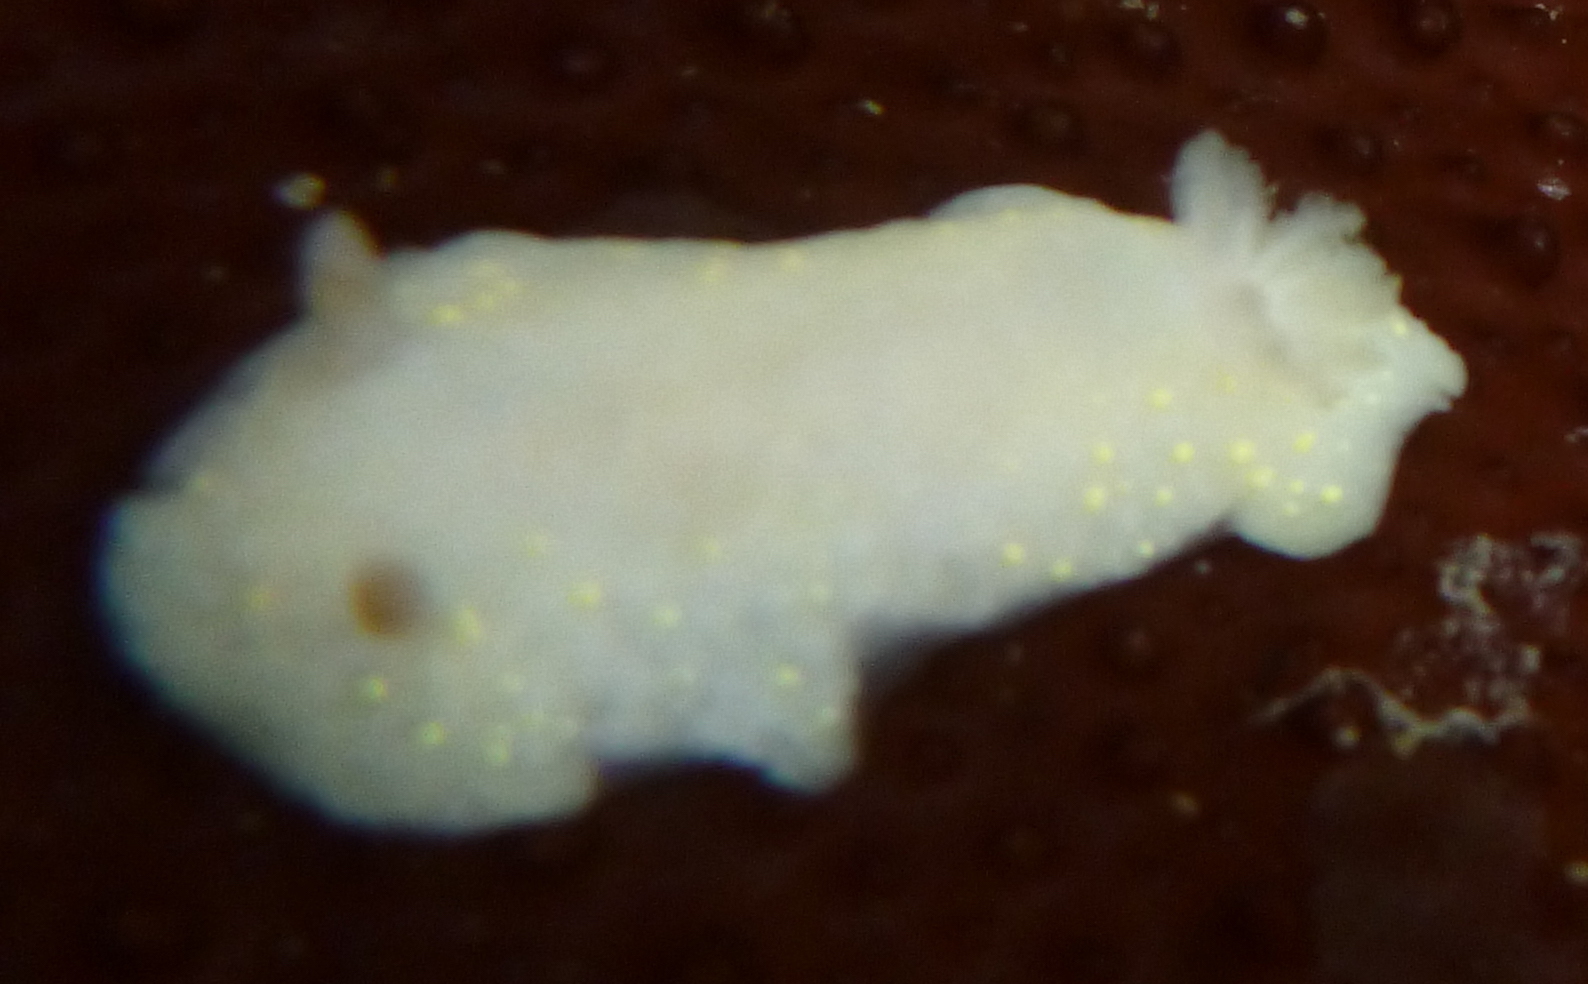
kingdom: Animalia
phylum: Mollusca
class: Gastropoda
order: Nudibranchia
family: Cadlinidae
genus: Cadlina
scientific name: Cadlina modesta
